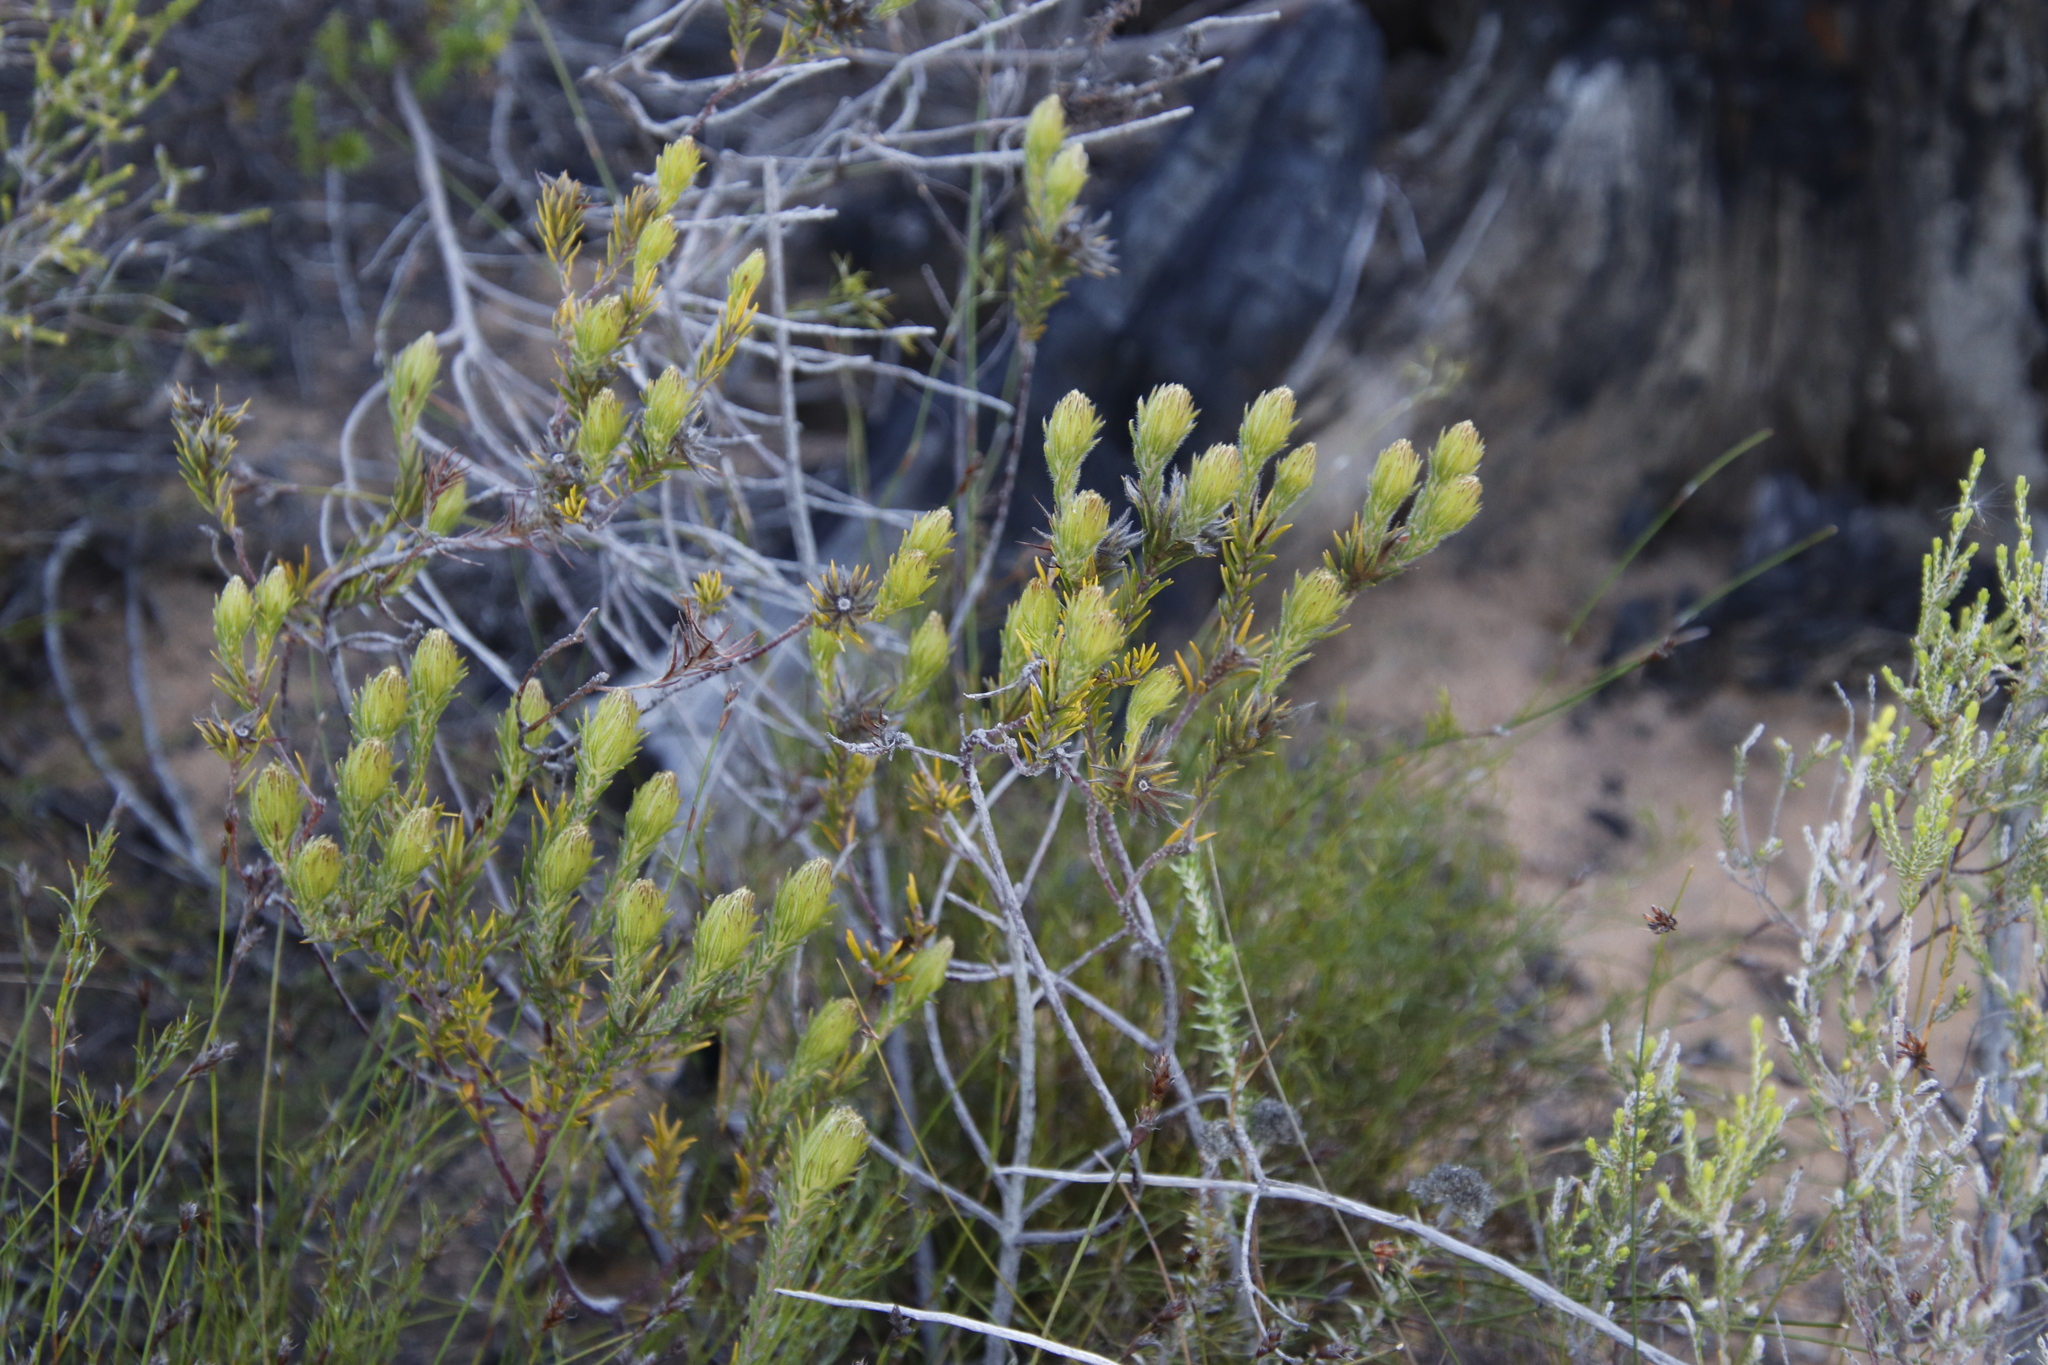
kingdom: Plantae
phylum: Tracheophyta
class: Magnoliopsida
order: Rosales
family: Rhamnaceae
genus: Phylica
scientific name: Phylica plumosa
